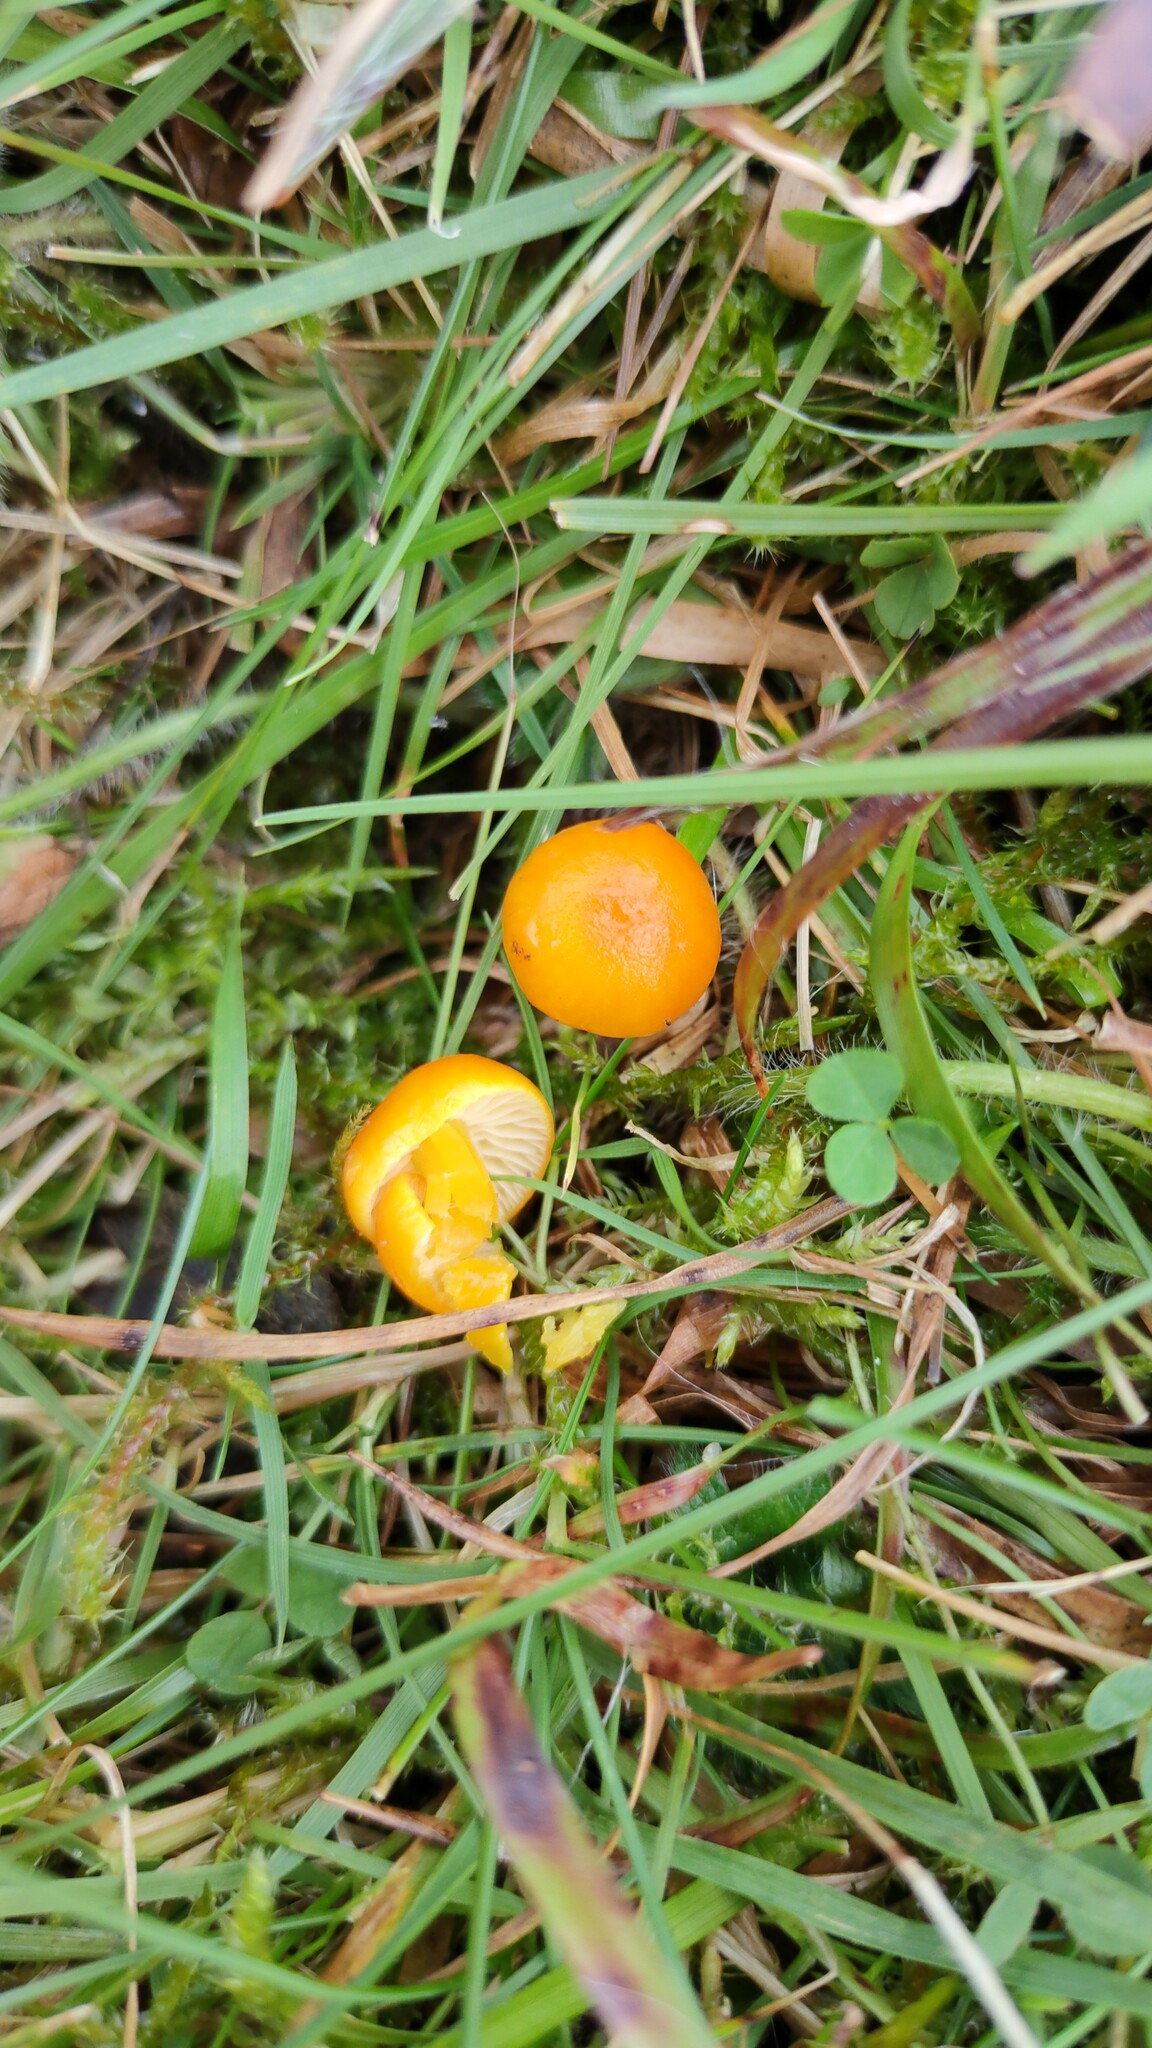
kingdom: Fungi
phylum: Basidiomycota
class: Agaricomycetes
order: Agaricales
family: Hygrophoraceae
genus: Hygrocybe
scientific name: Hygrocybe ceracea
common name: Butter waxcap
